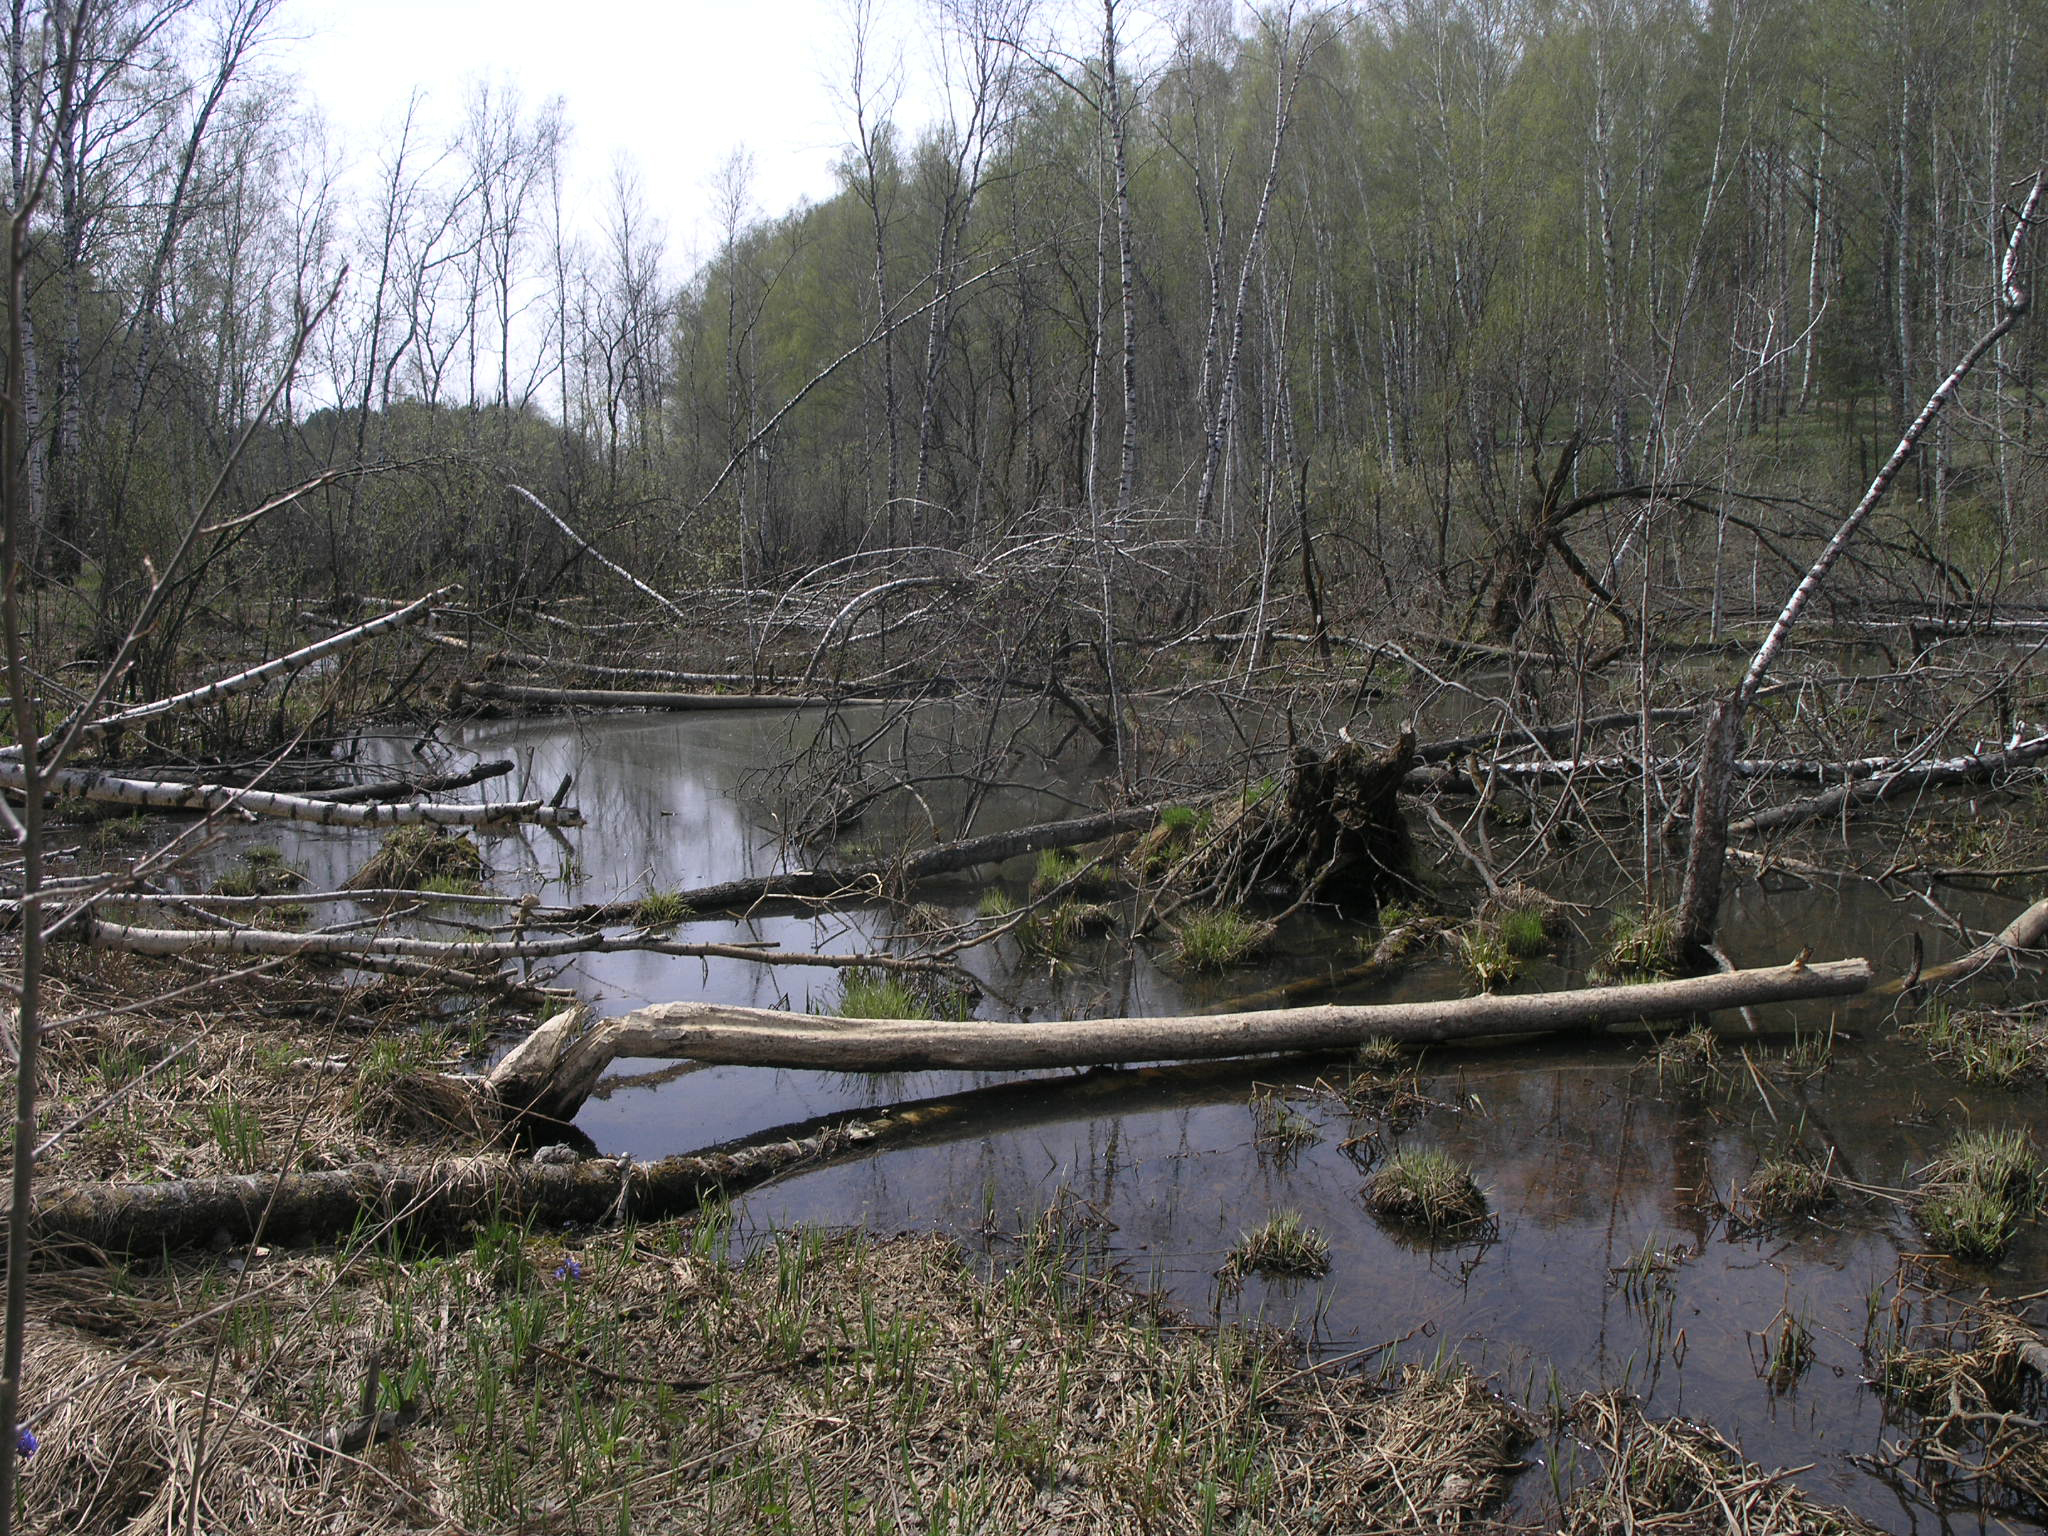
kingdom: Animalia
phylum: Chordata
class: Mammalia
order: Rodentia
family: Castoridae
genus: Castor
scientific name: Castor fiber
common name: Eurasian beaver
